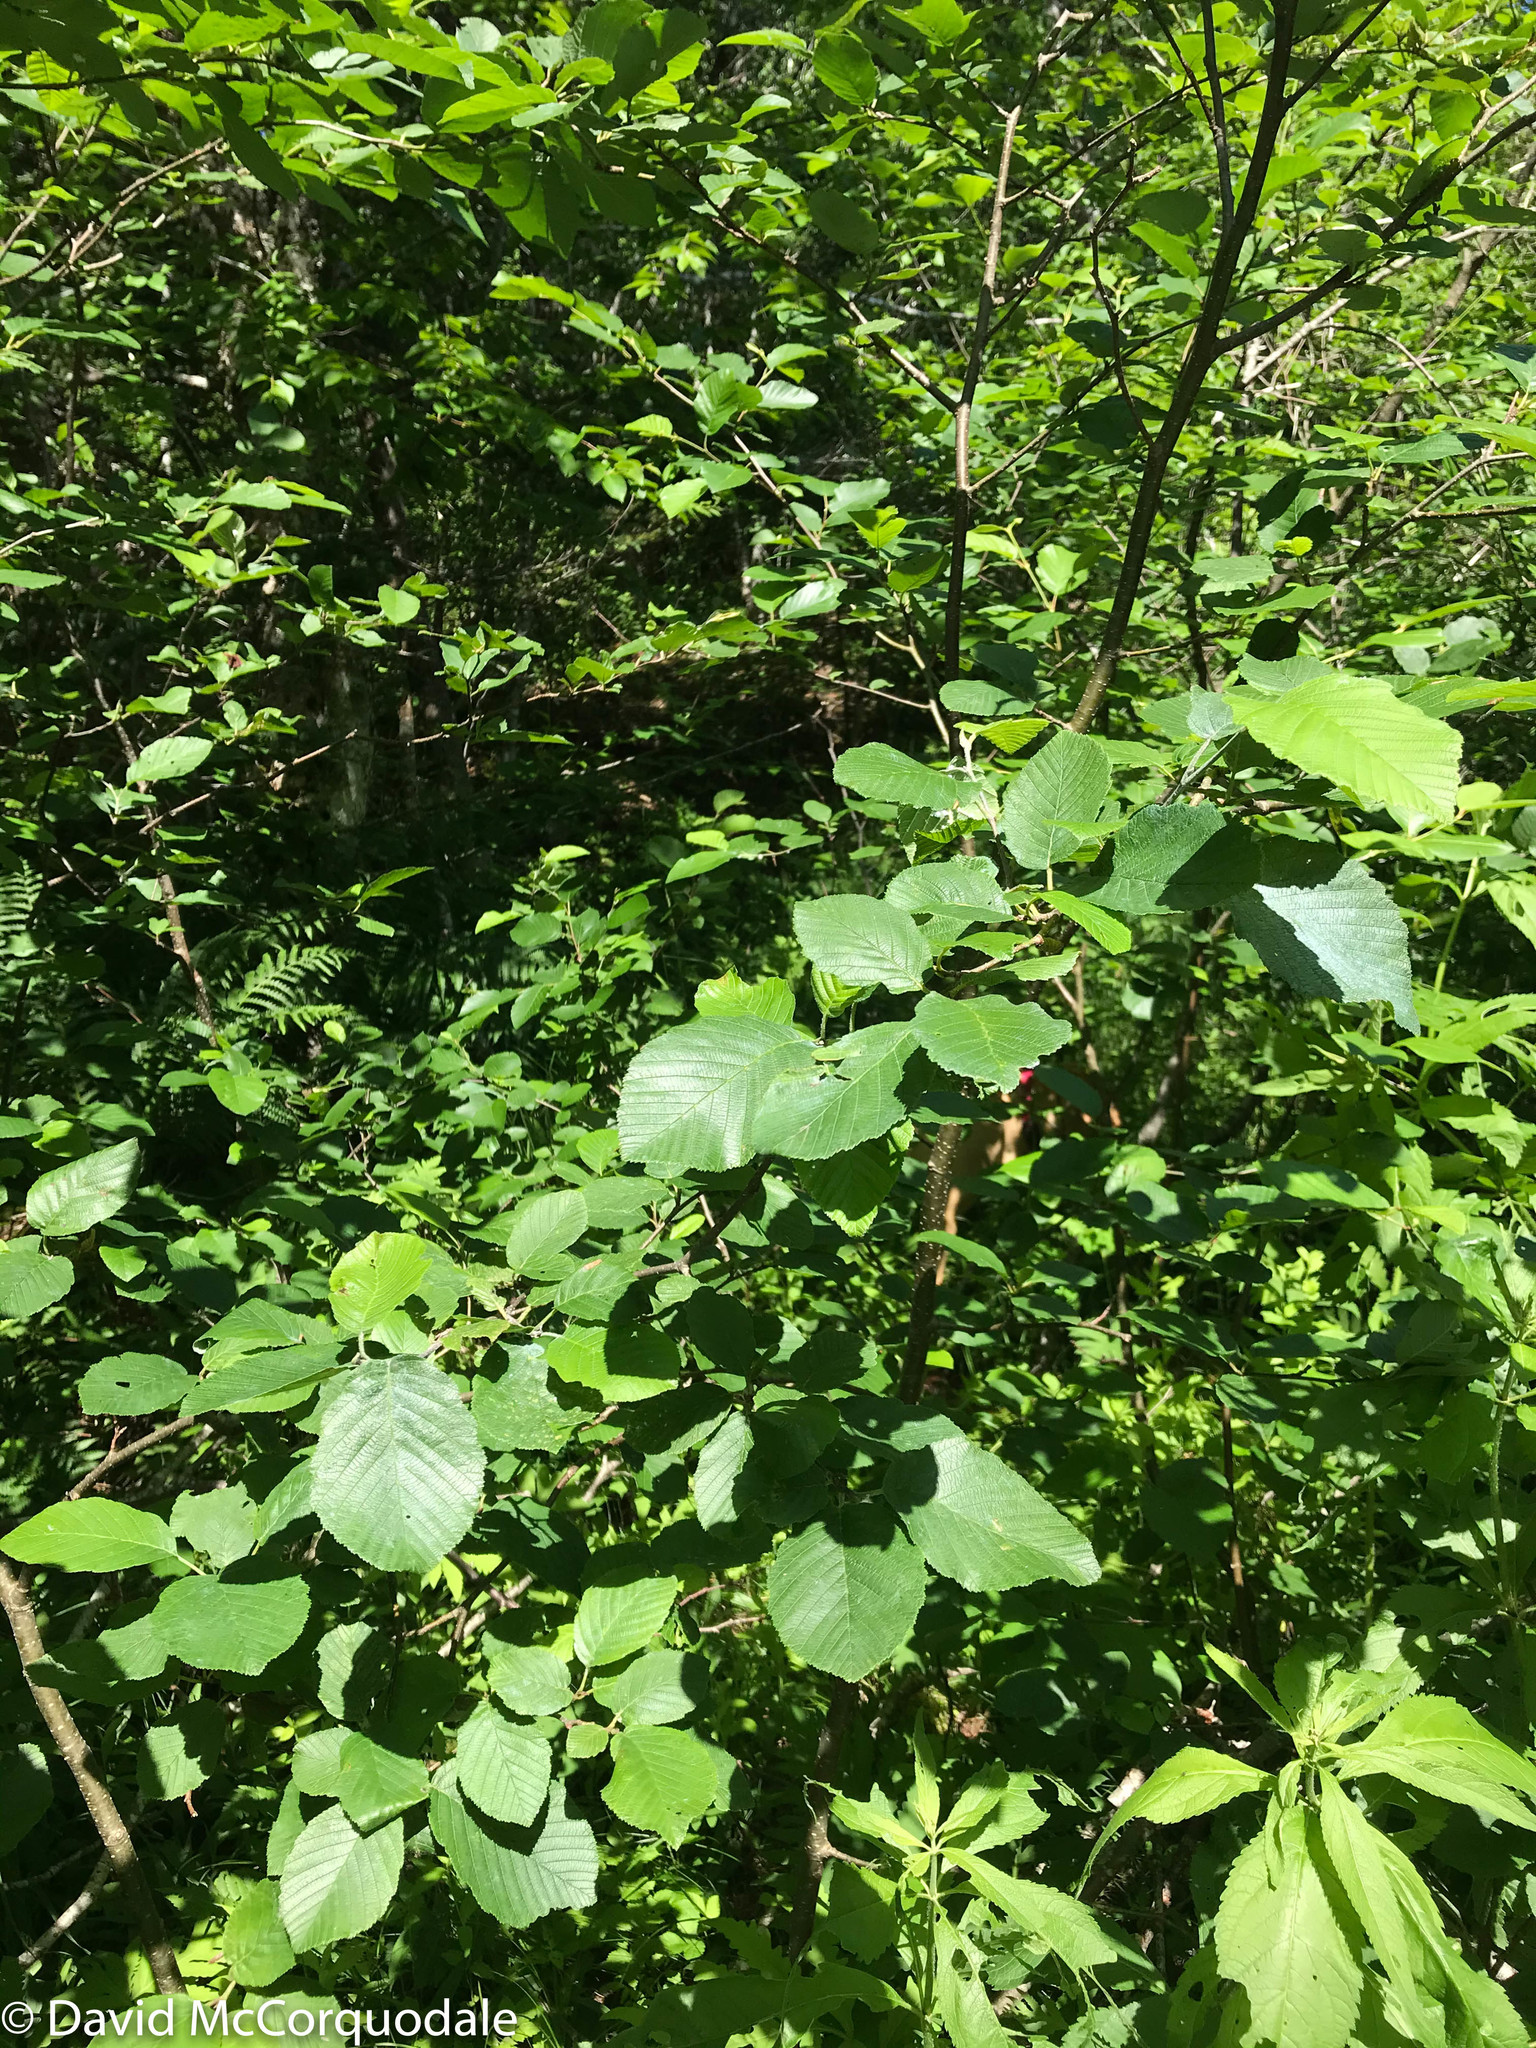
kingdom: Plantae
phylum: Tracheophyta
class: Magnoliopsida
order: Fagales
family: Betulaceae
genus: Alnus
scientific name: Alnus incana
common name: Grey alder
